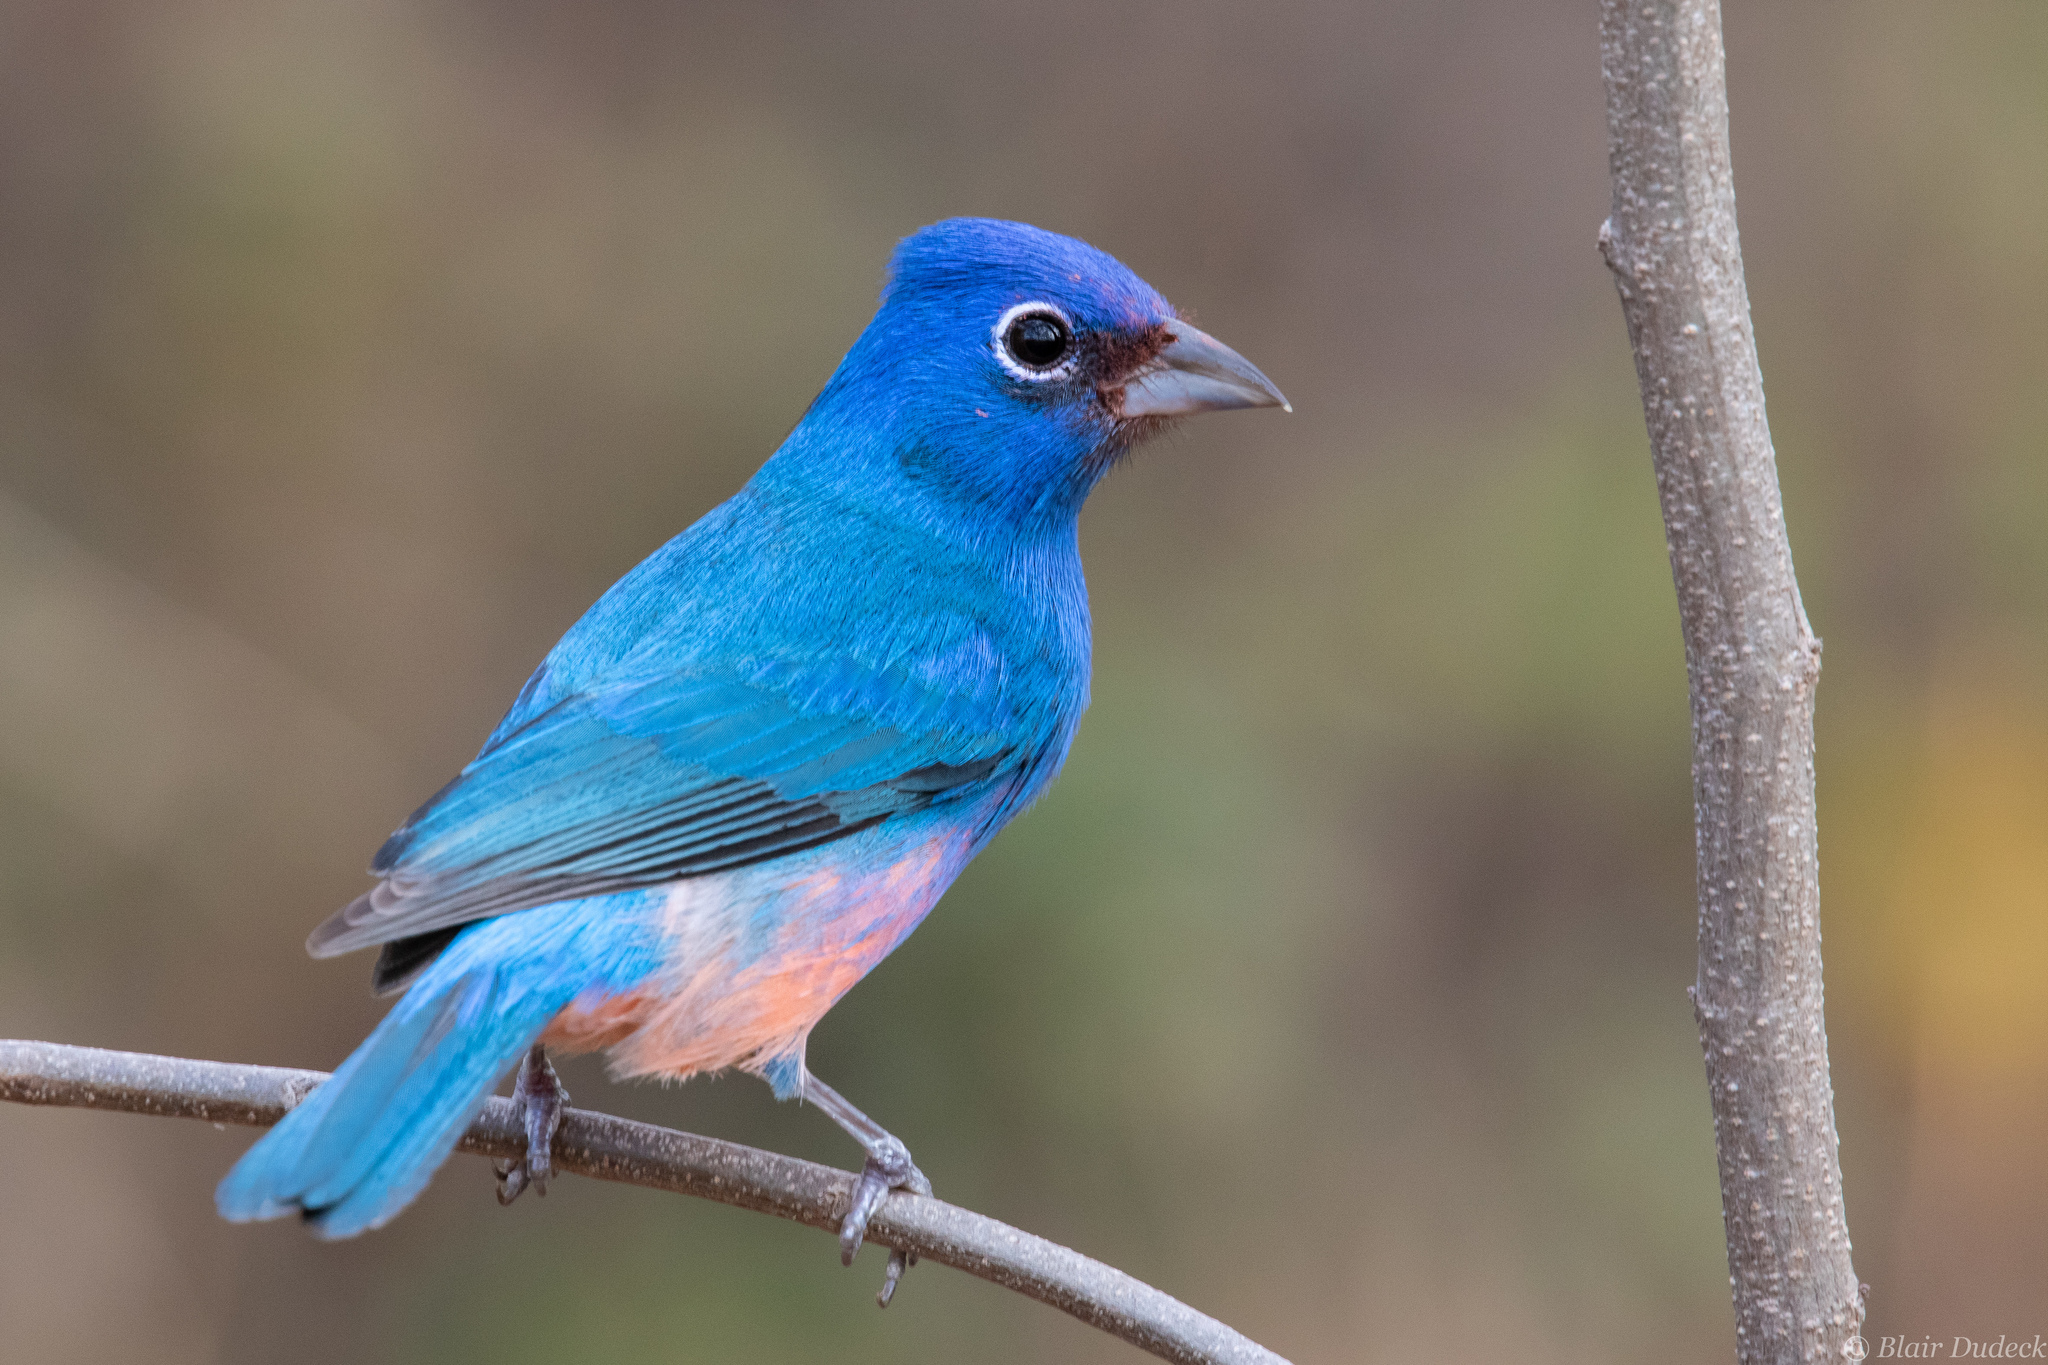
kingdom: Animalia
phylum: Chordata
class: Aves
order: Passeriformes
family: Cardinalidae
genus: Passerina
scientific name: Passerina rositae
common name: Rose-bellied bunting
